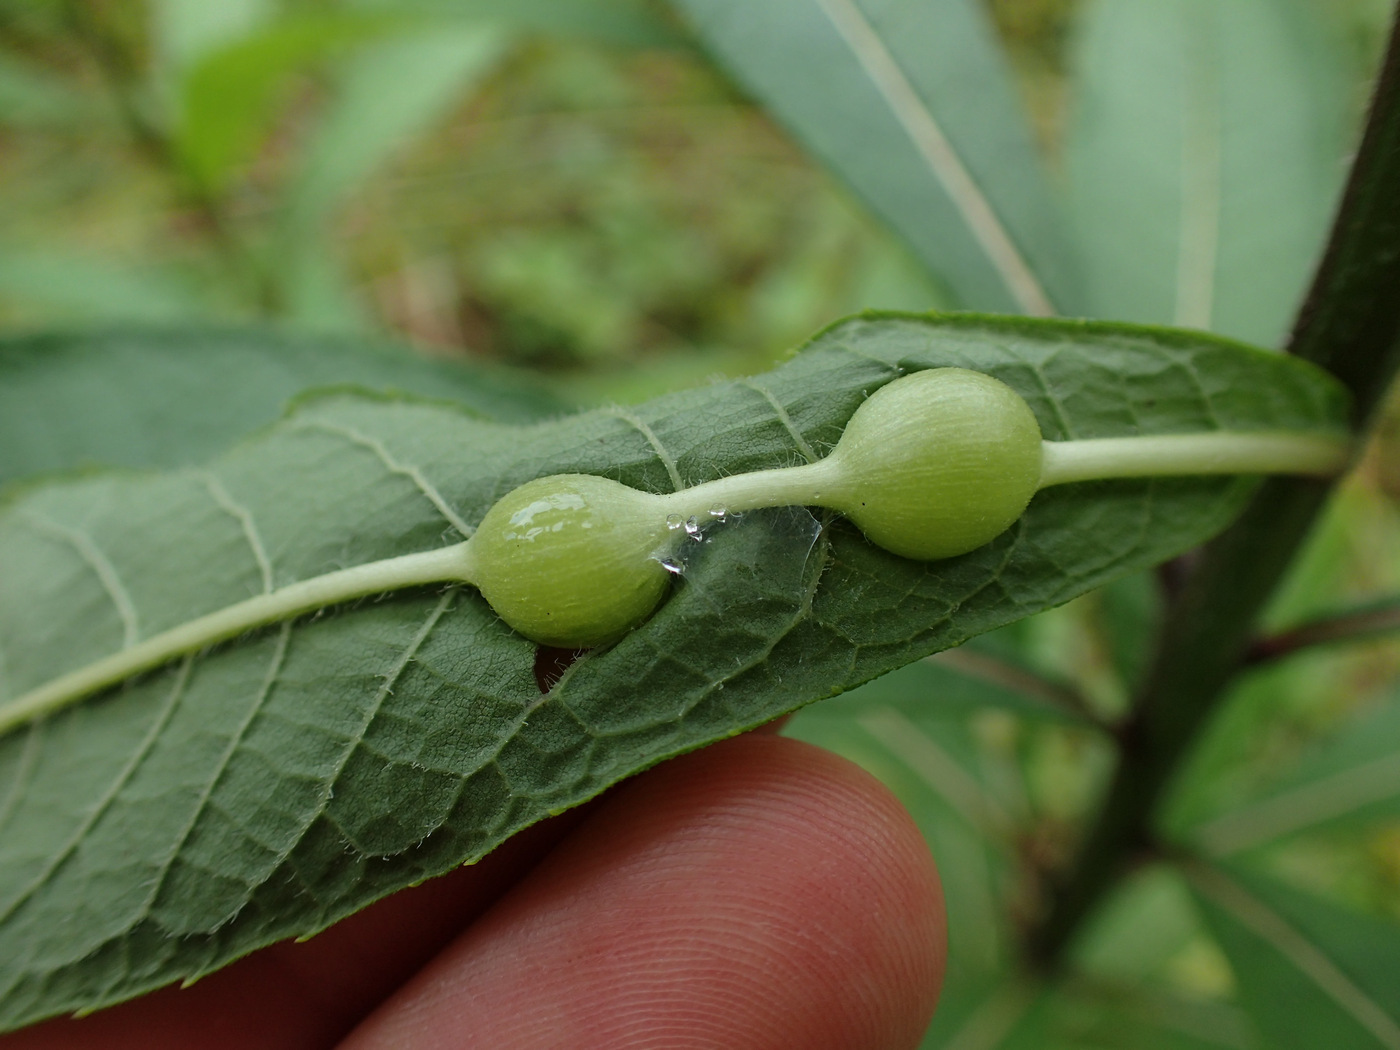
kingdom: Animalia
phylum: Arthropoda
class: Insecta
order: Diptera
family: Cecidomyiidae
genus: Neolasioptera
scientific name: Neolasioptera vernoniae
